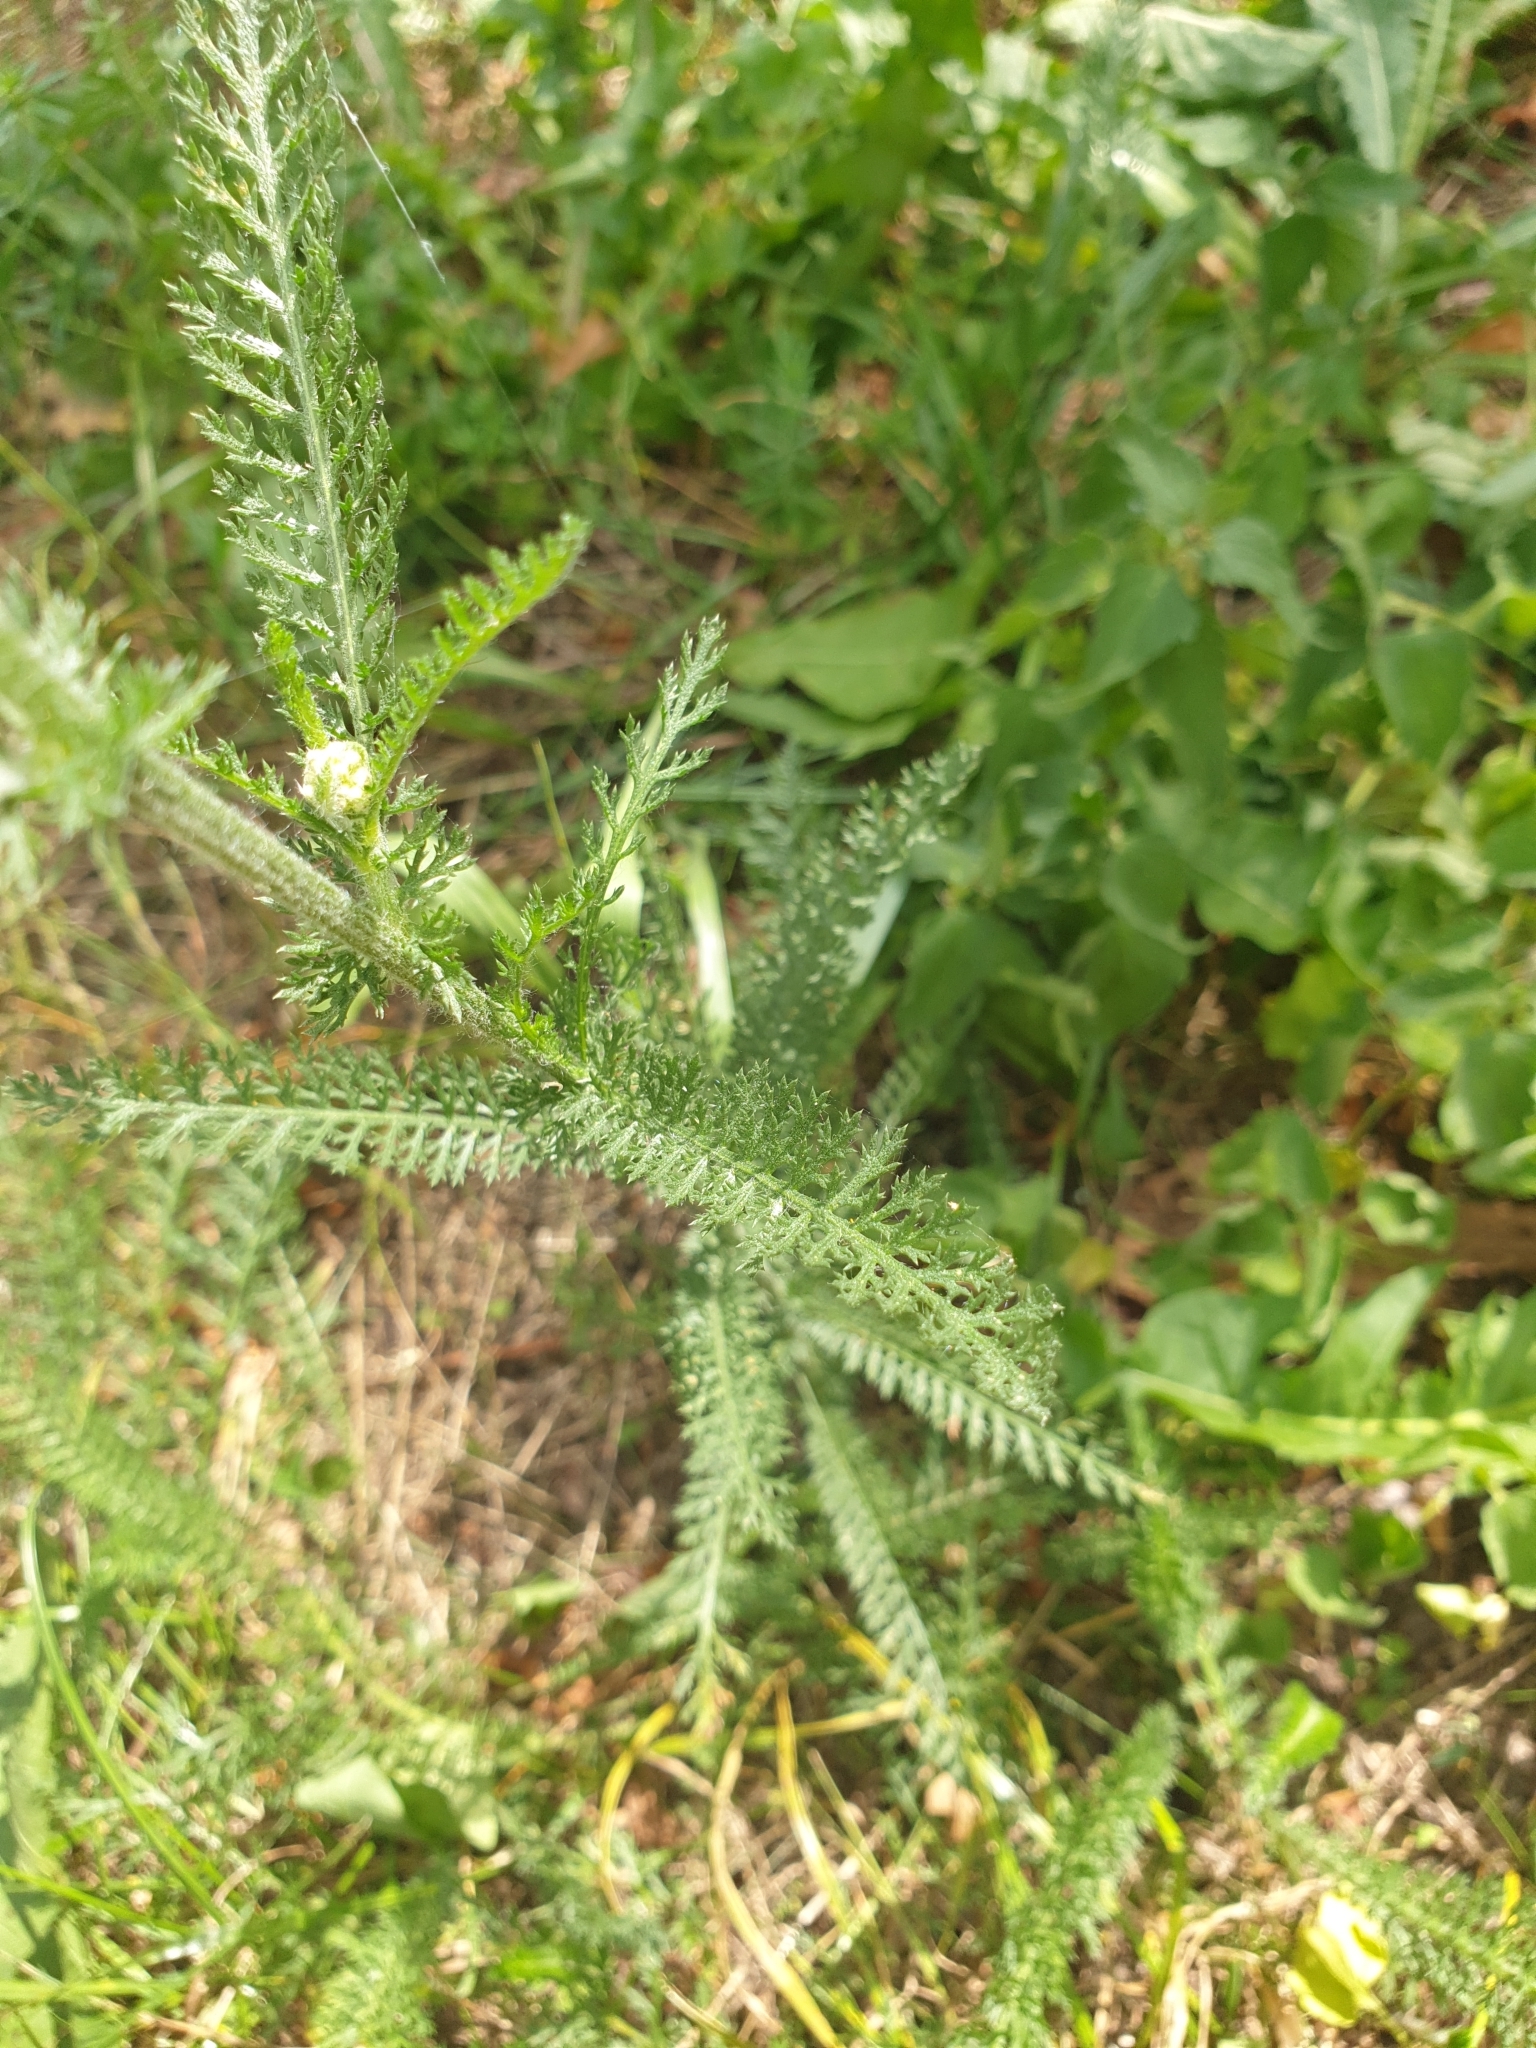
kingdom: Plantae
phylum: Tracheophyta
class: Magnoliopsida
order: Asterales
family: Asteraceae
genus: Achillea
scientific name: Achillea millefolium
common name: Yarrow
